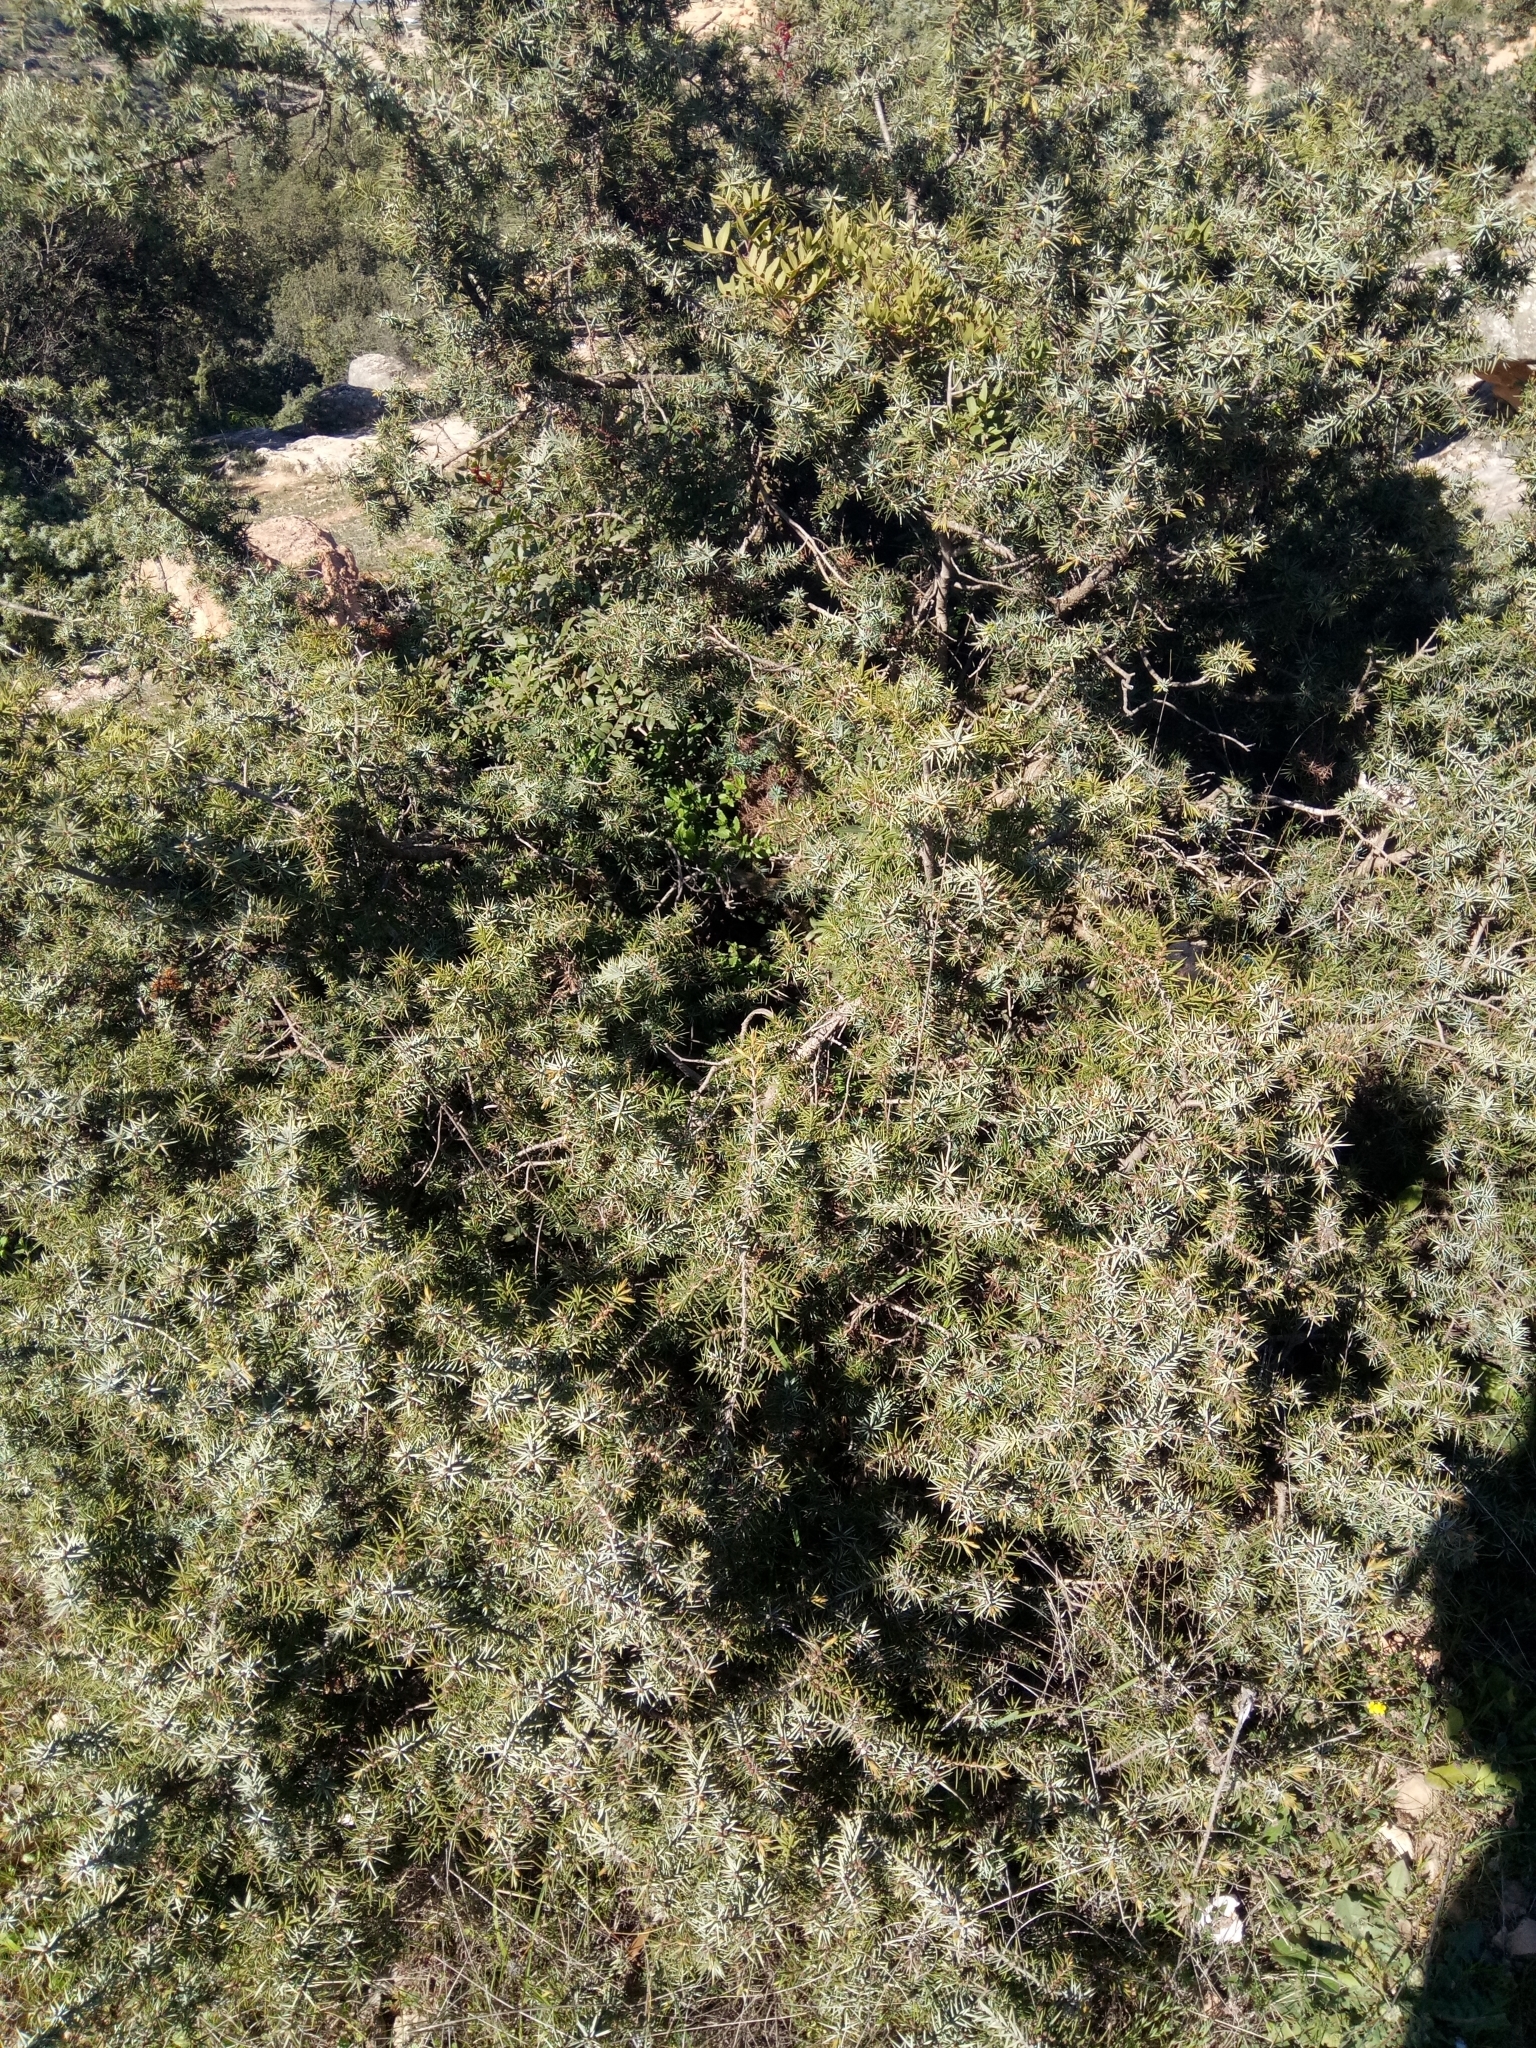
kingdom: Plantae
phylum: Tracheophyta
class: Pinopsida
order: Pinales
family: Cupressaceae
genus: Juniperus
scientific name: Juniperus oxycedrus
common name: Prickly juniper
